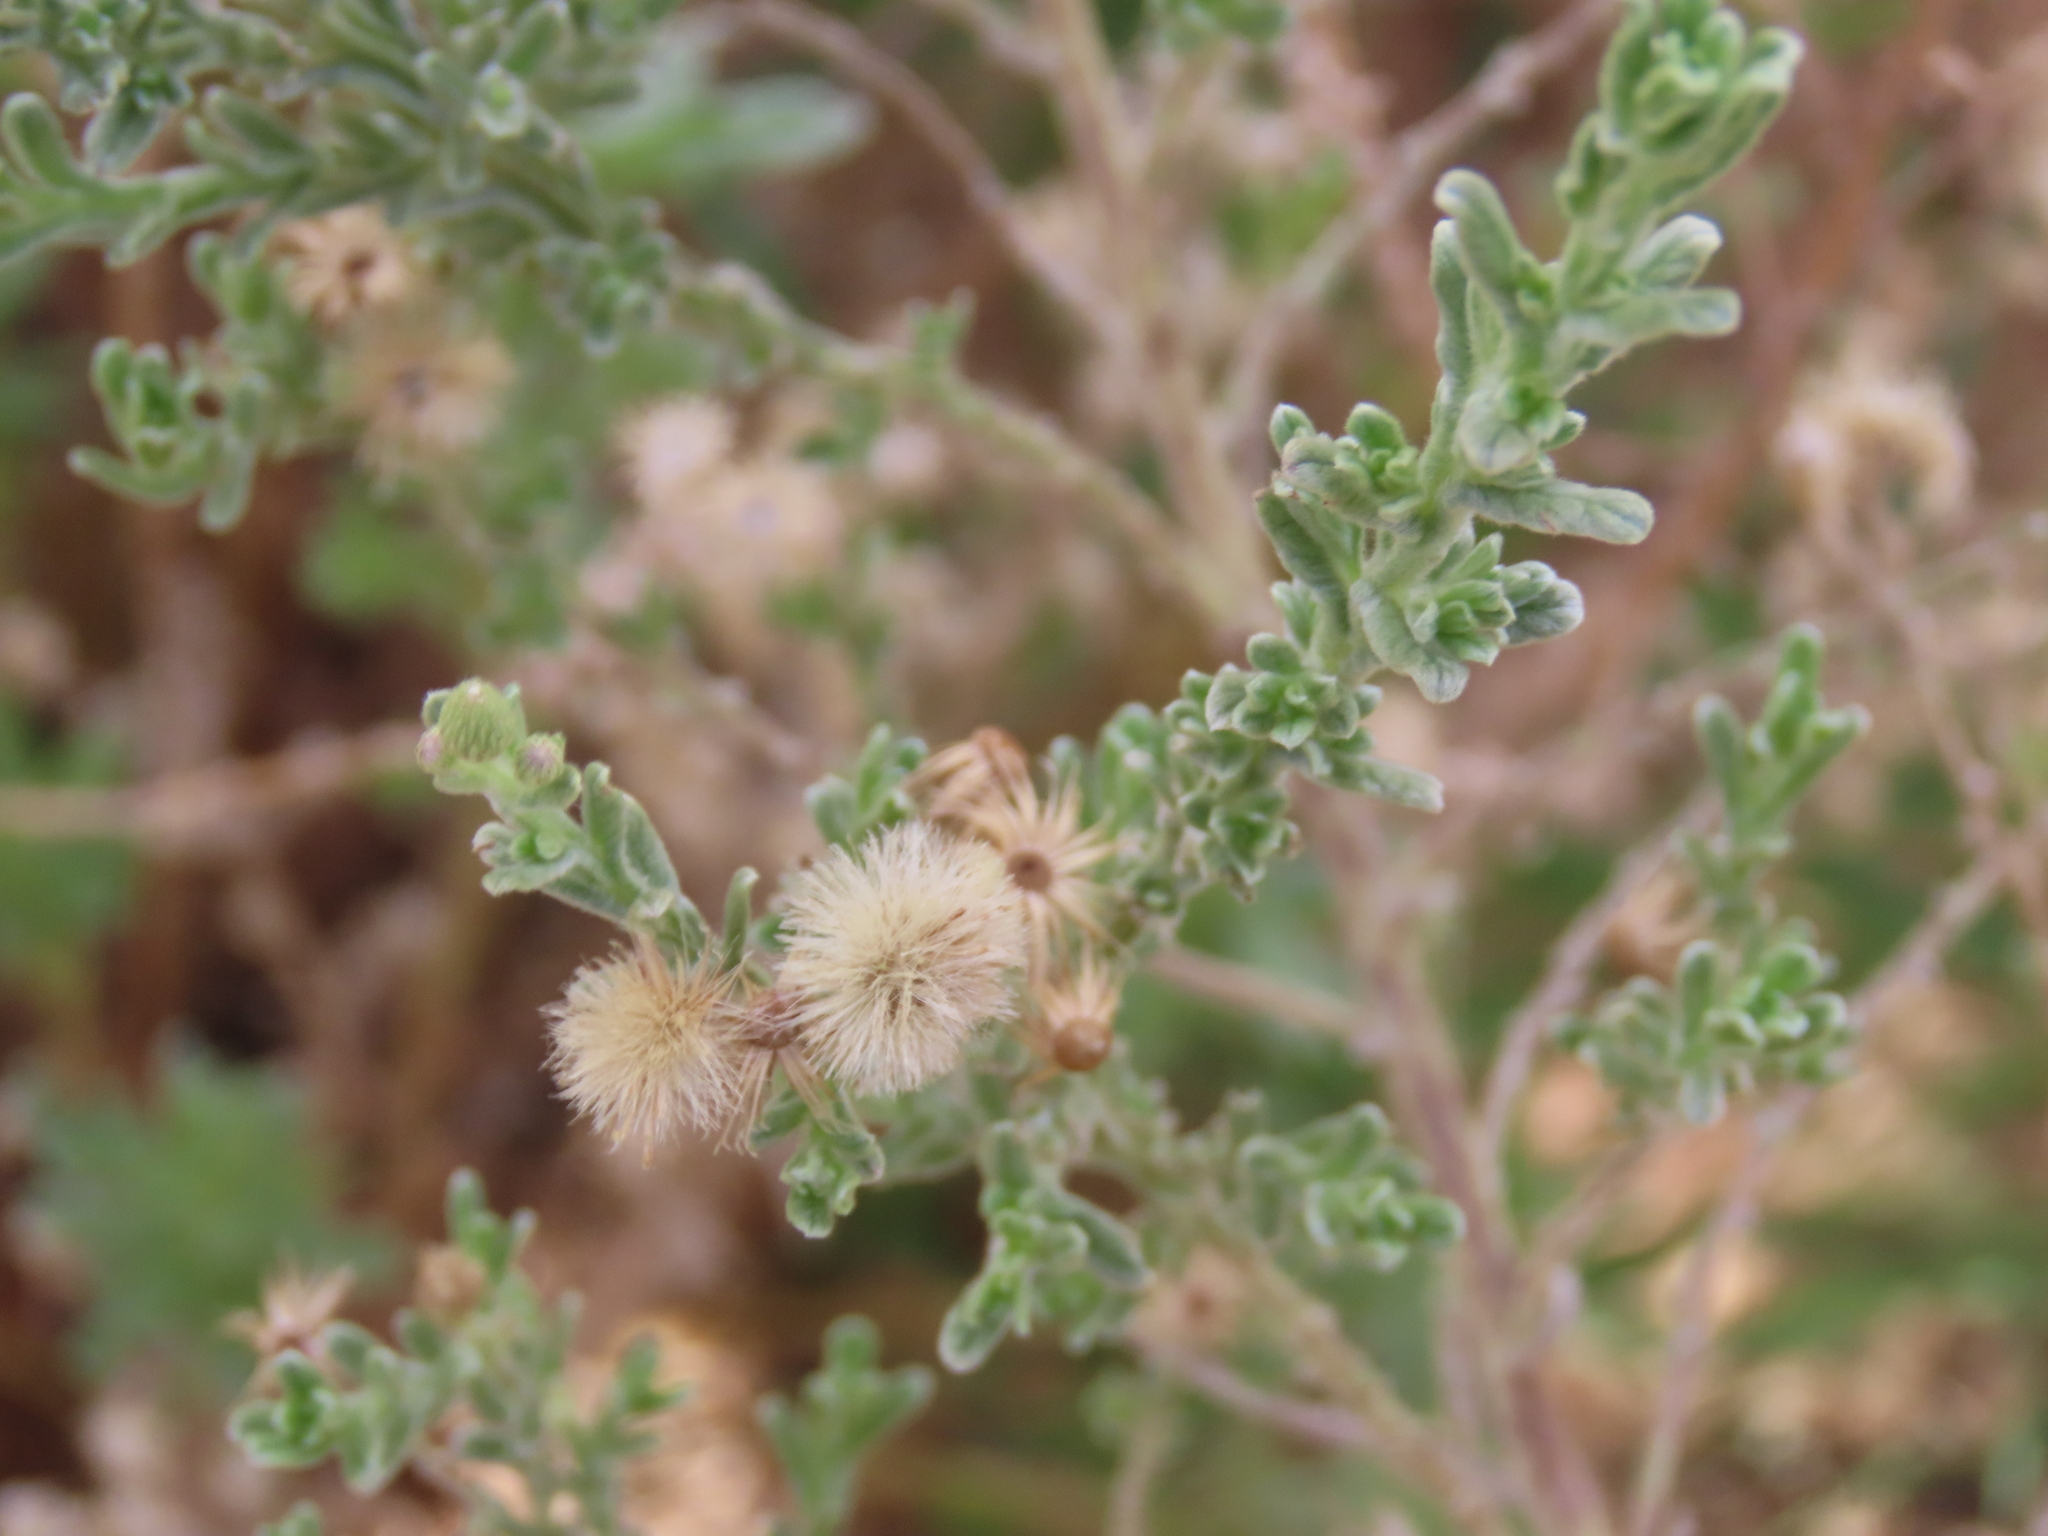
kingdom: Plantae
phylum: Tracheophyta
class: Magnoliopsida
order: Asterales
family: Asteraceae
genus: Galgera
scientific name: Galgera decurrens
